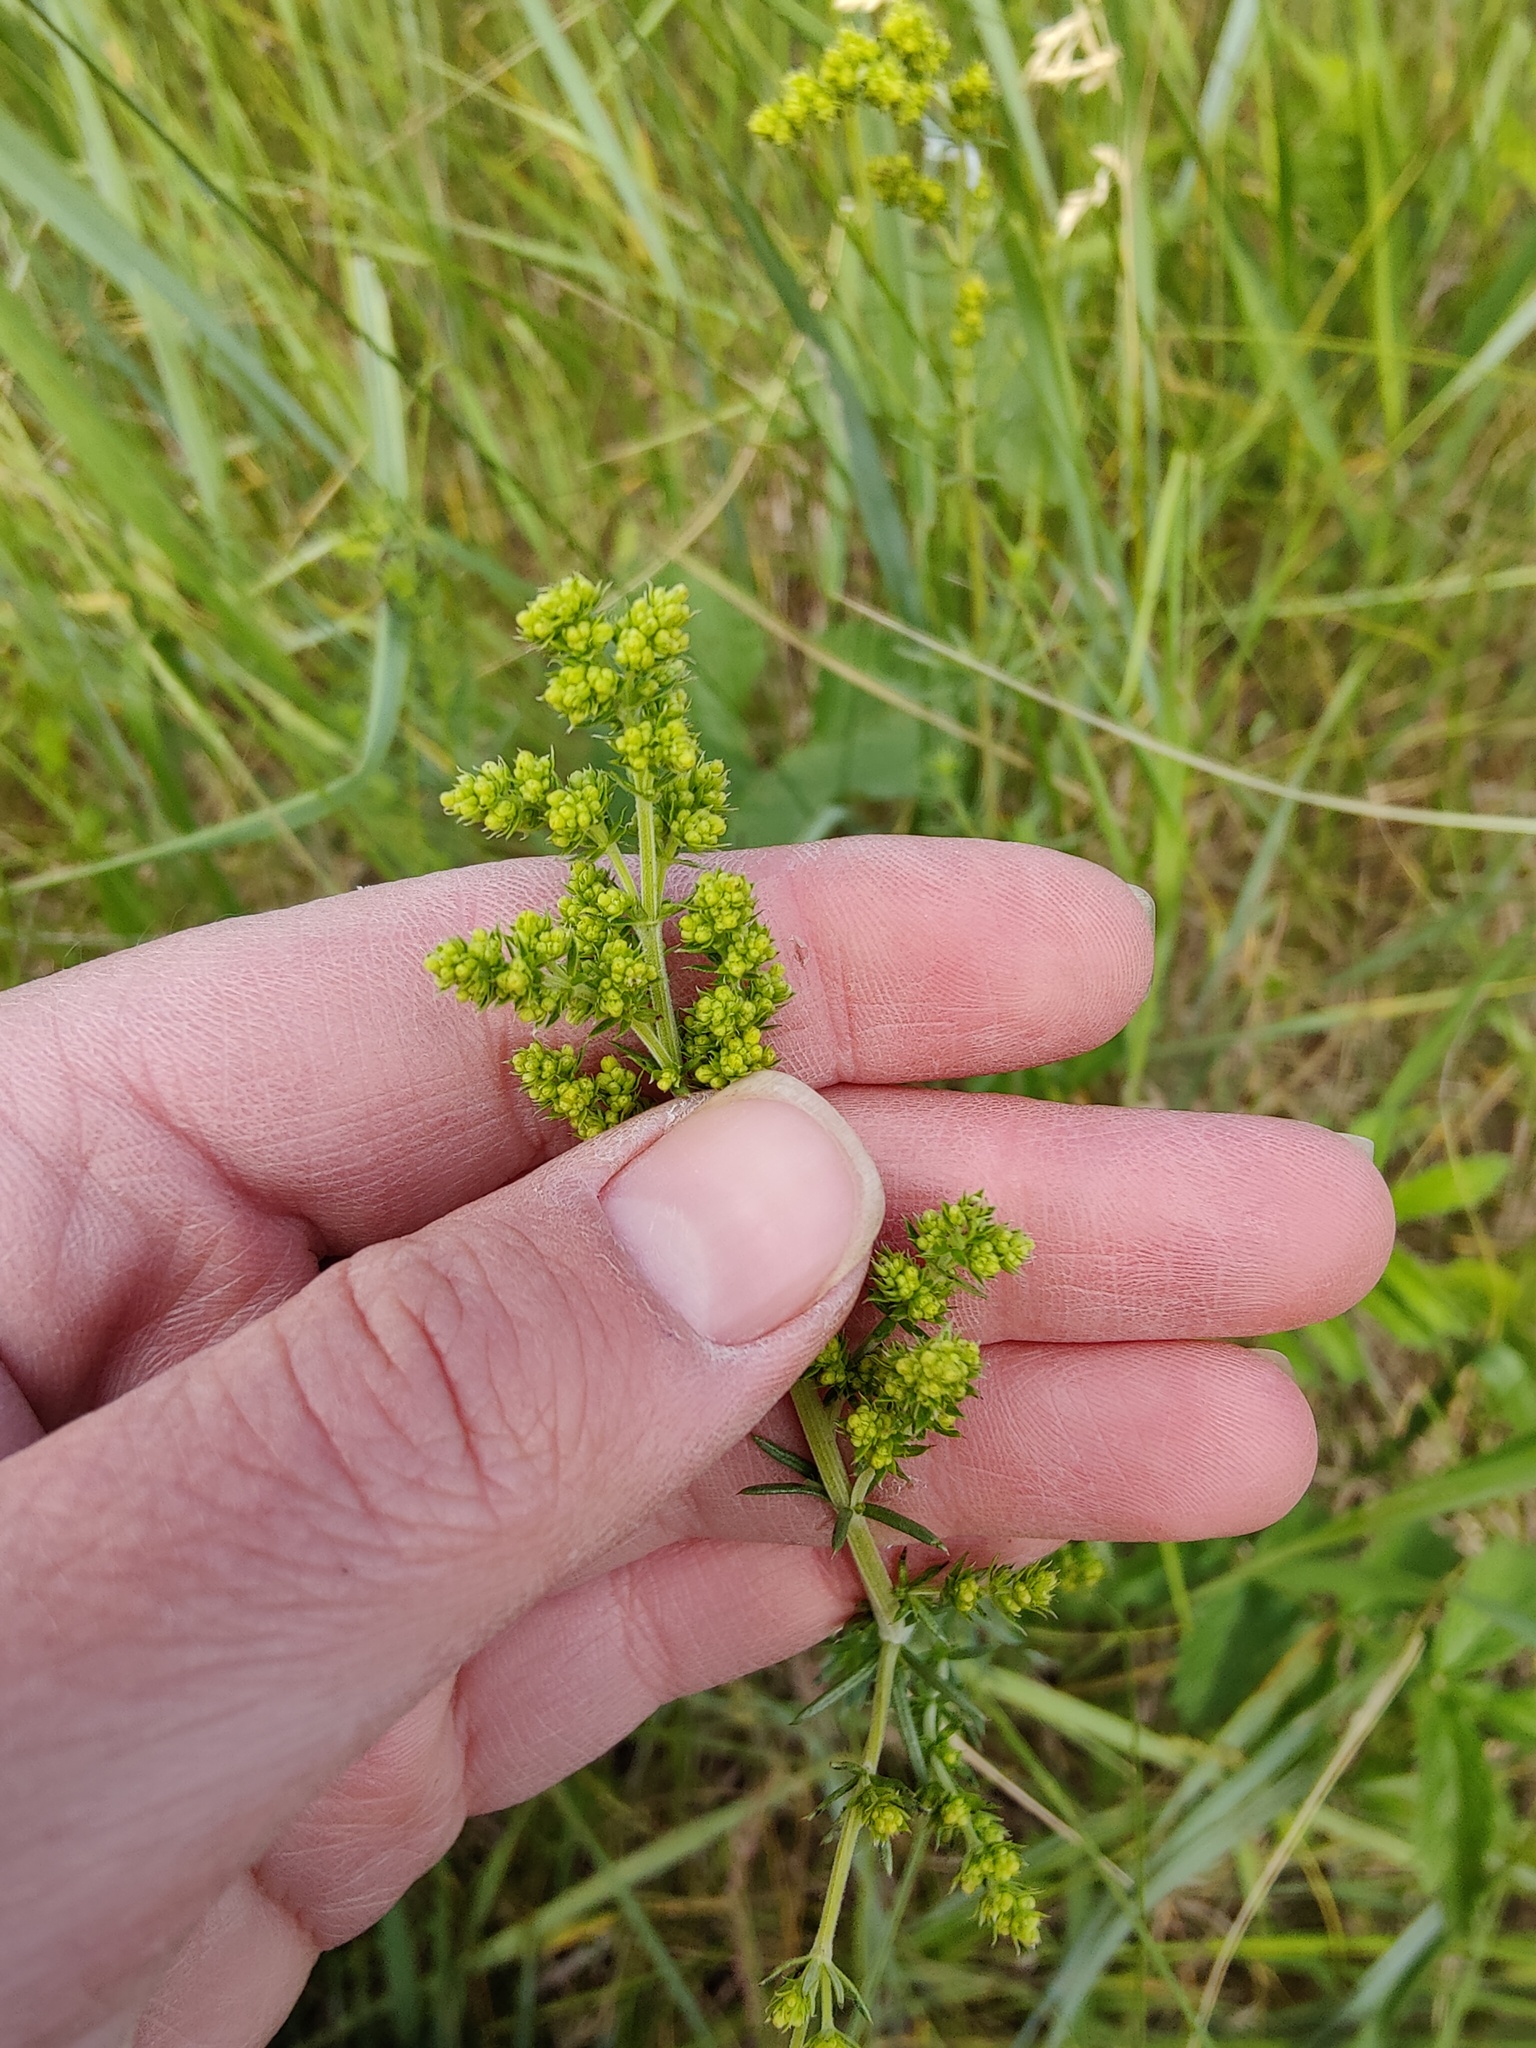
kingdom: Plantae
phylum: Tracheophyta
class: Magnoliopsida
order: Gentianales
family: Rubiaceae
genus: Galium
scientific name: Galium verum
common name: Lady's bedstraw
